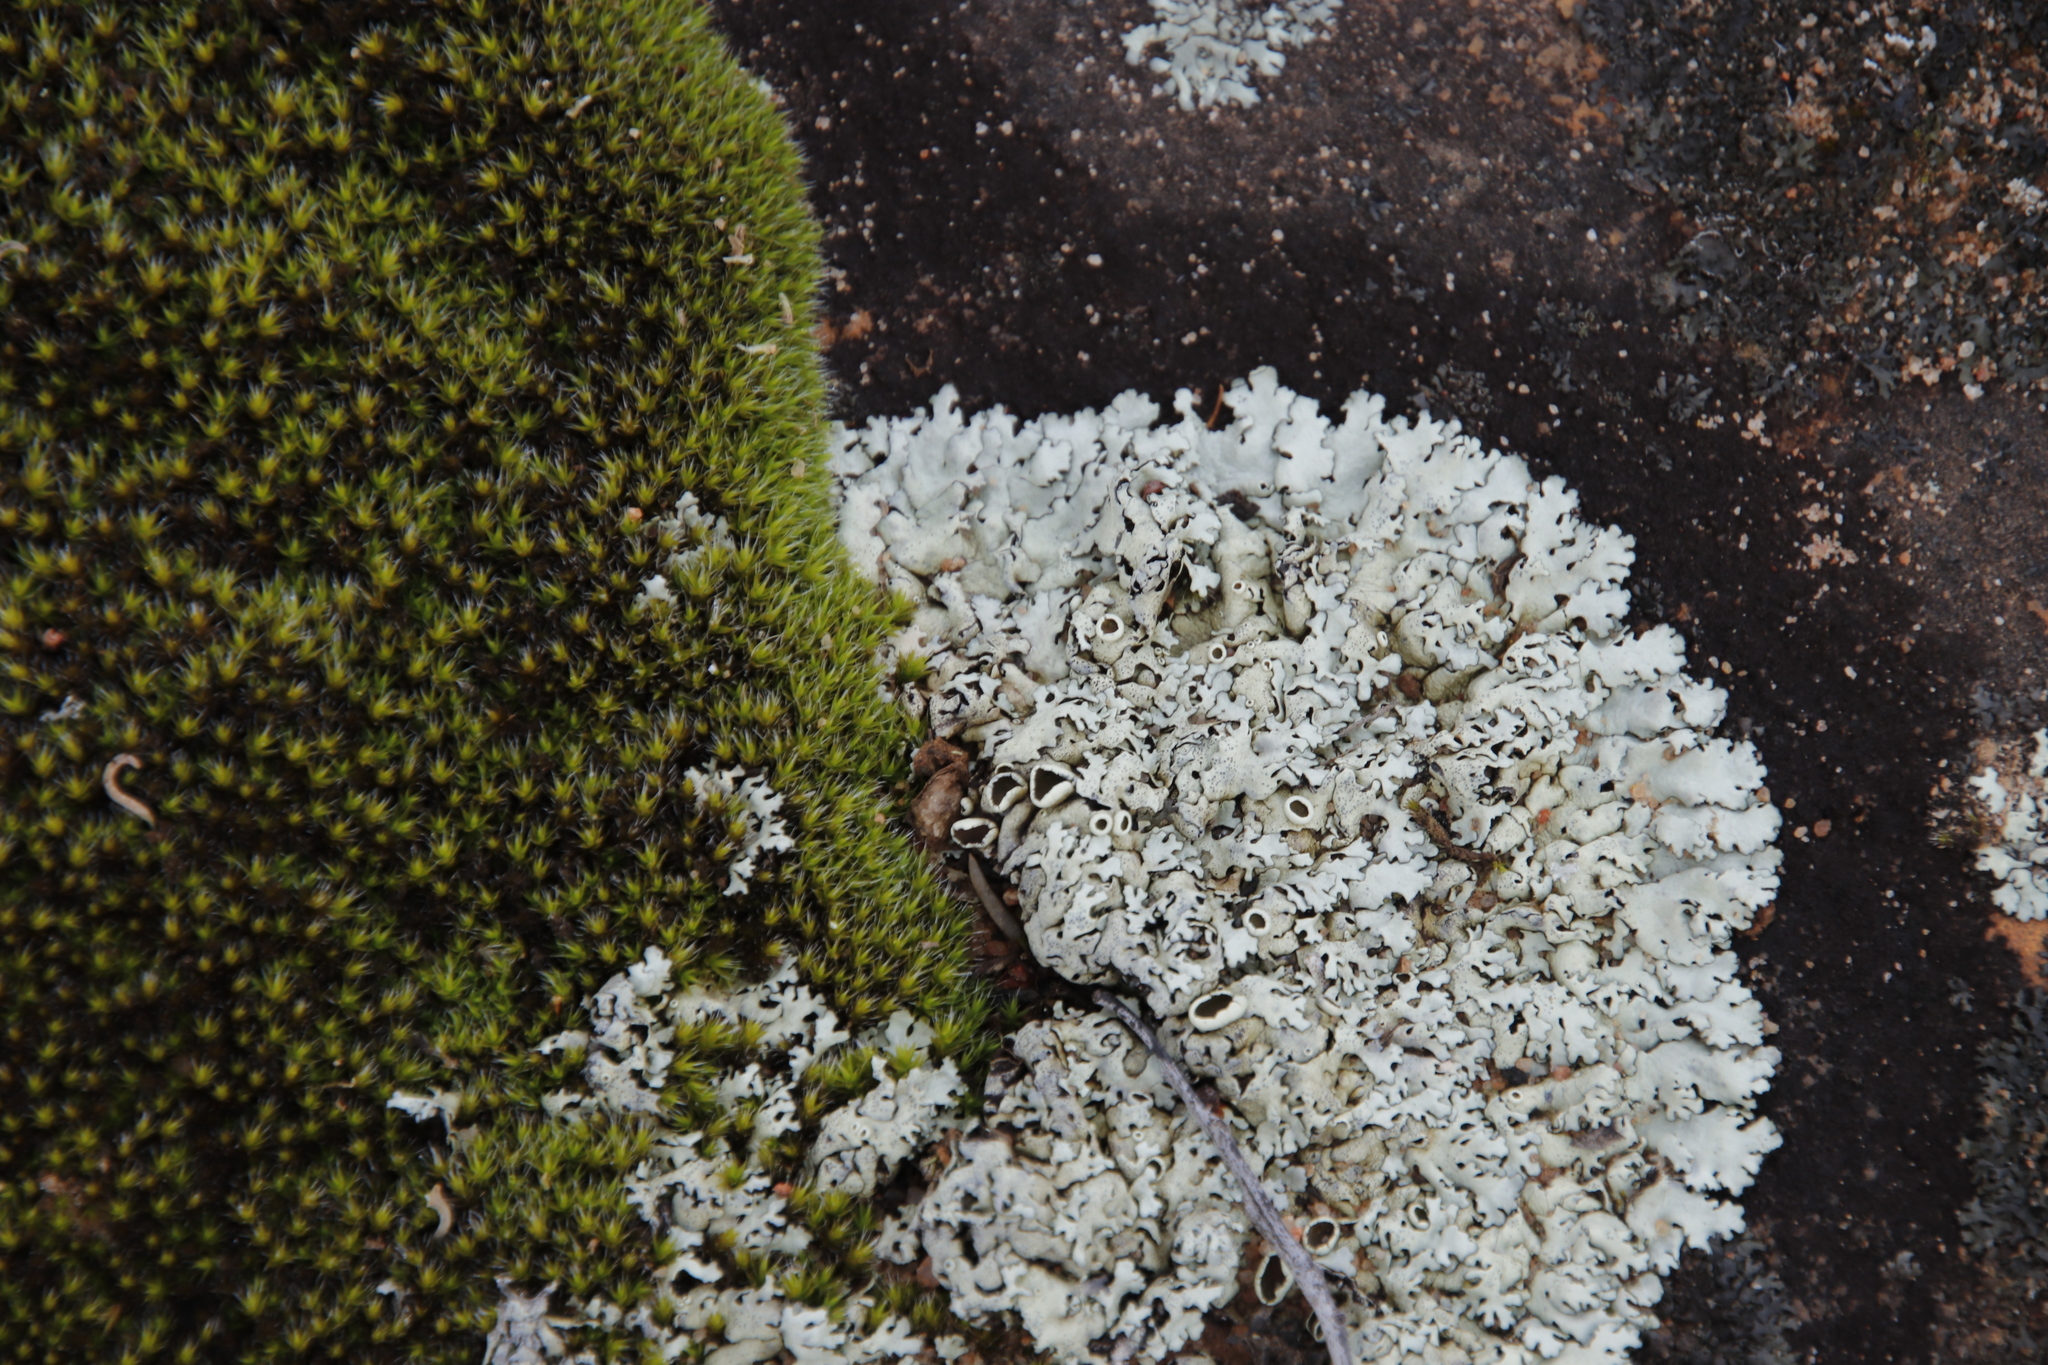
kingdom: Plantae
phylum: Bryophyta
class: Bryopsida
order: Grimmiales
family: Grimmiaceae
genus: Grimmia
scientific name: Grimmia laevigata
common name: Hoary grimmia
